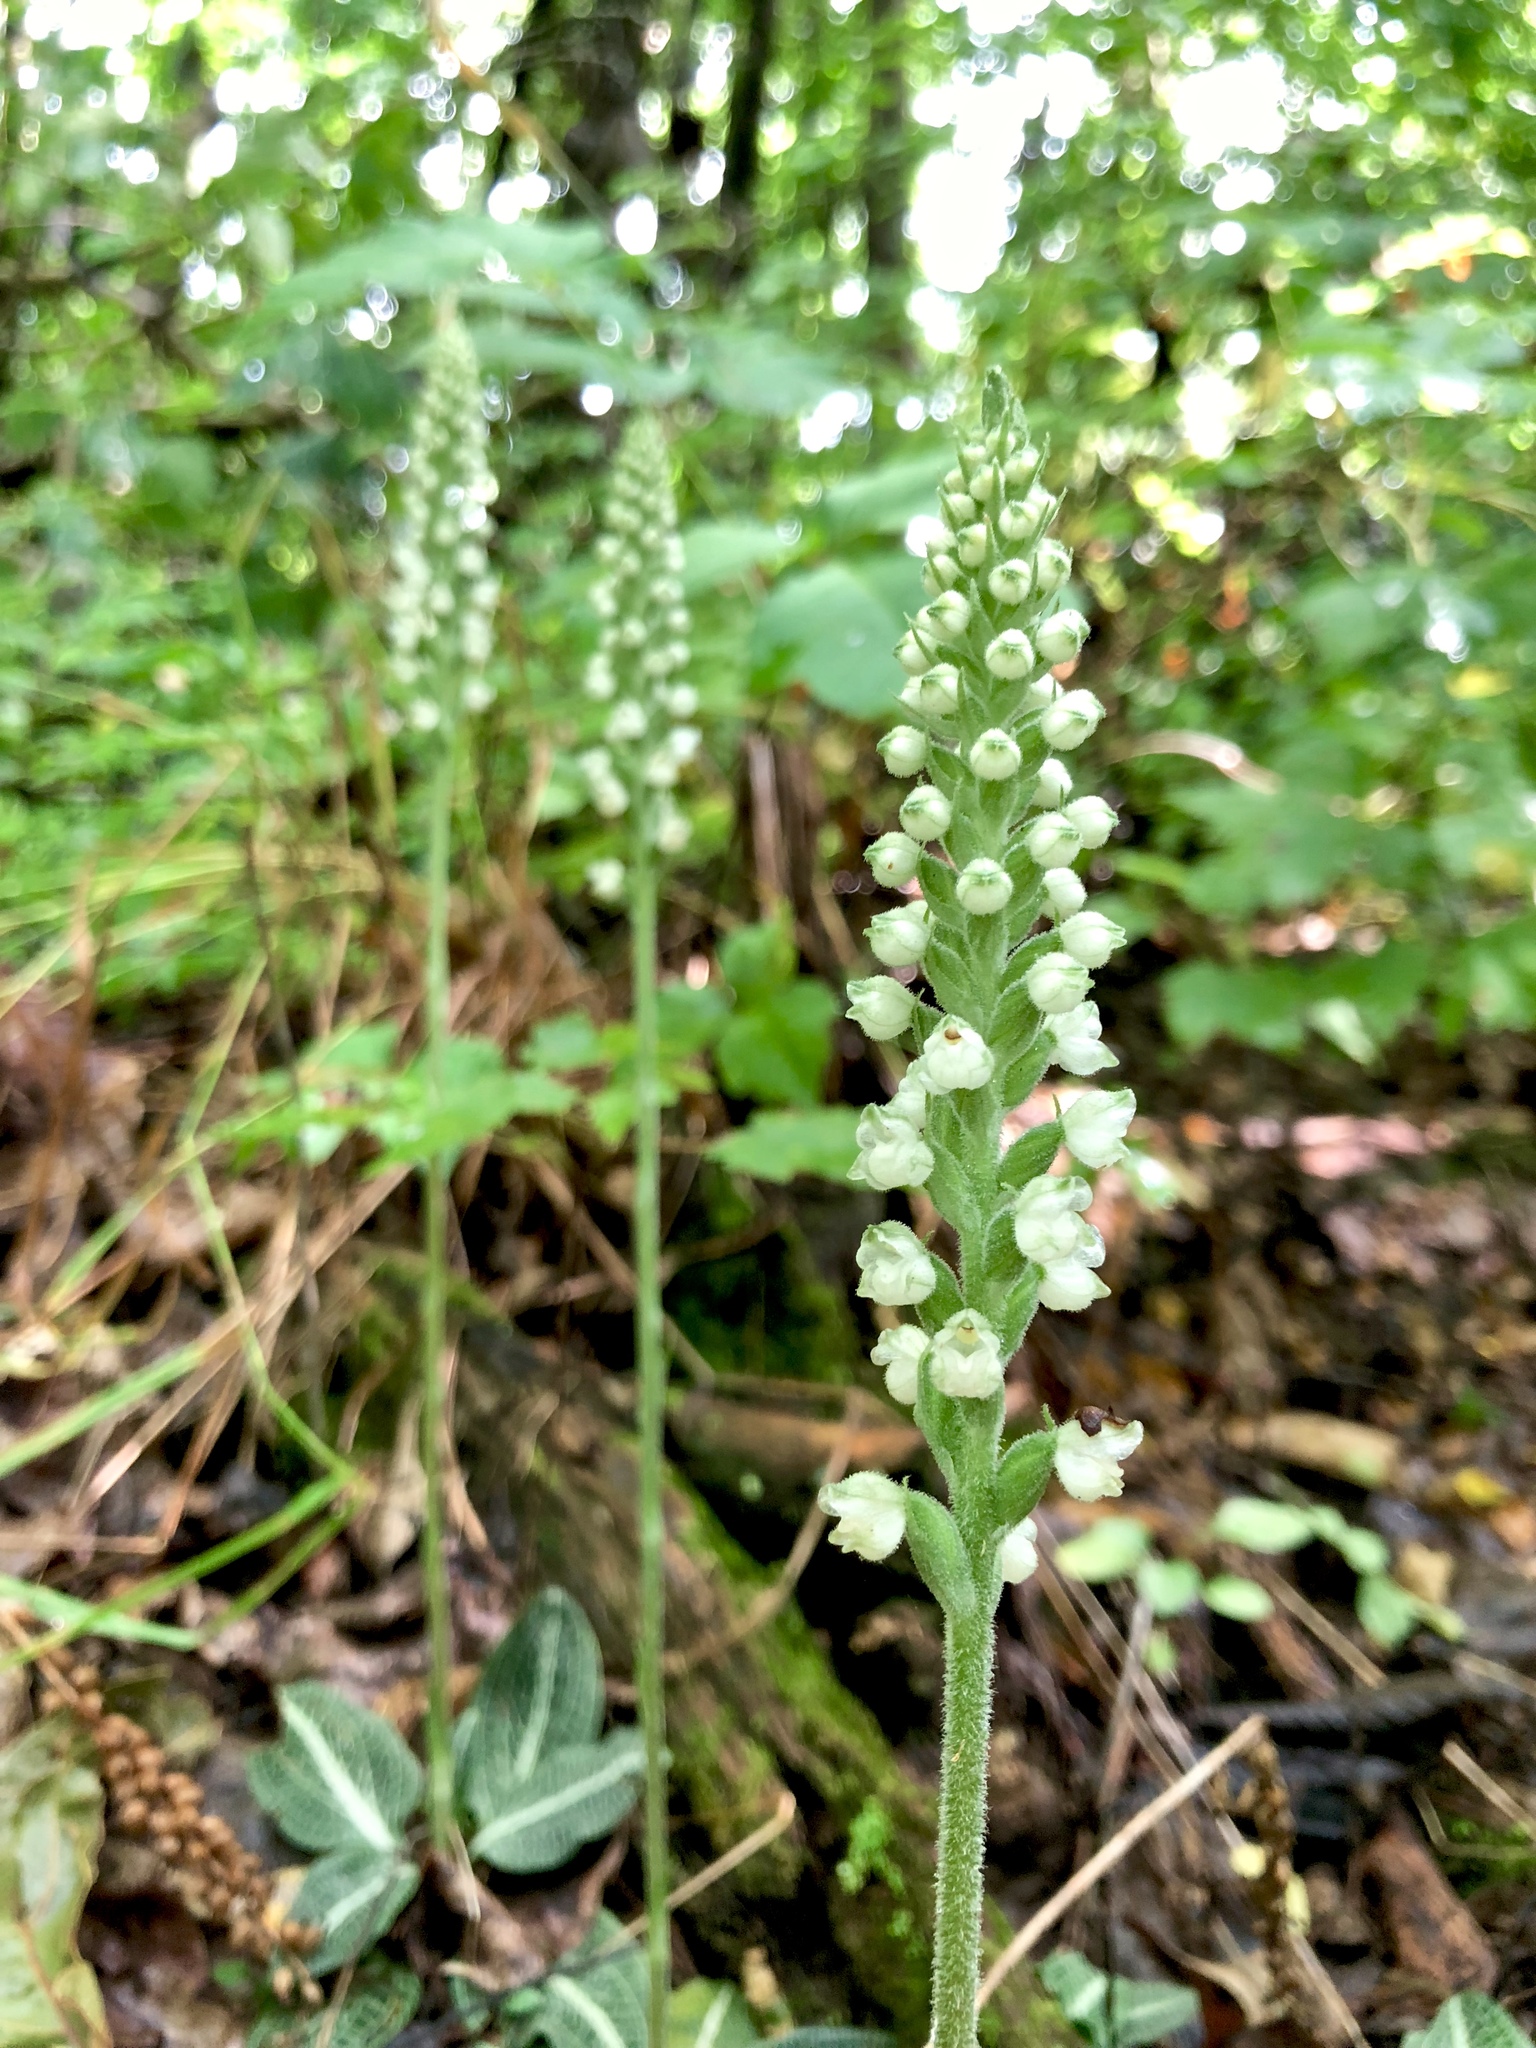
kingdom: Plantae
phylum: Tracheophyta
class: Liliopsida
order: Asparagales
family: Orchidaceae
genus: Goodyera
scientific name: Goodyera pubescens
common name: Downy rattlesnake-plantain
